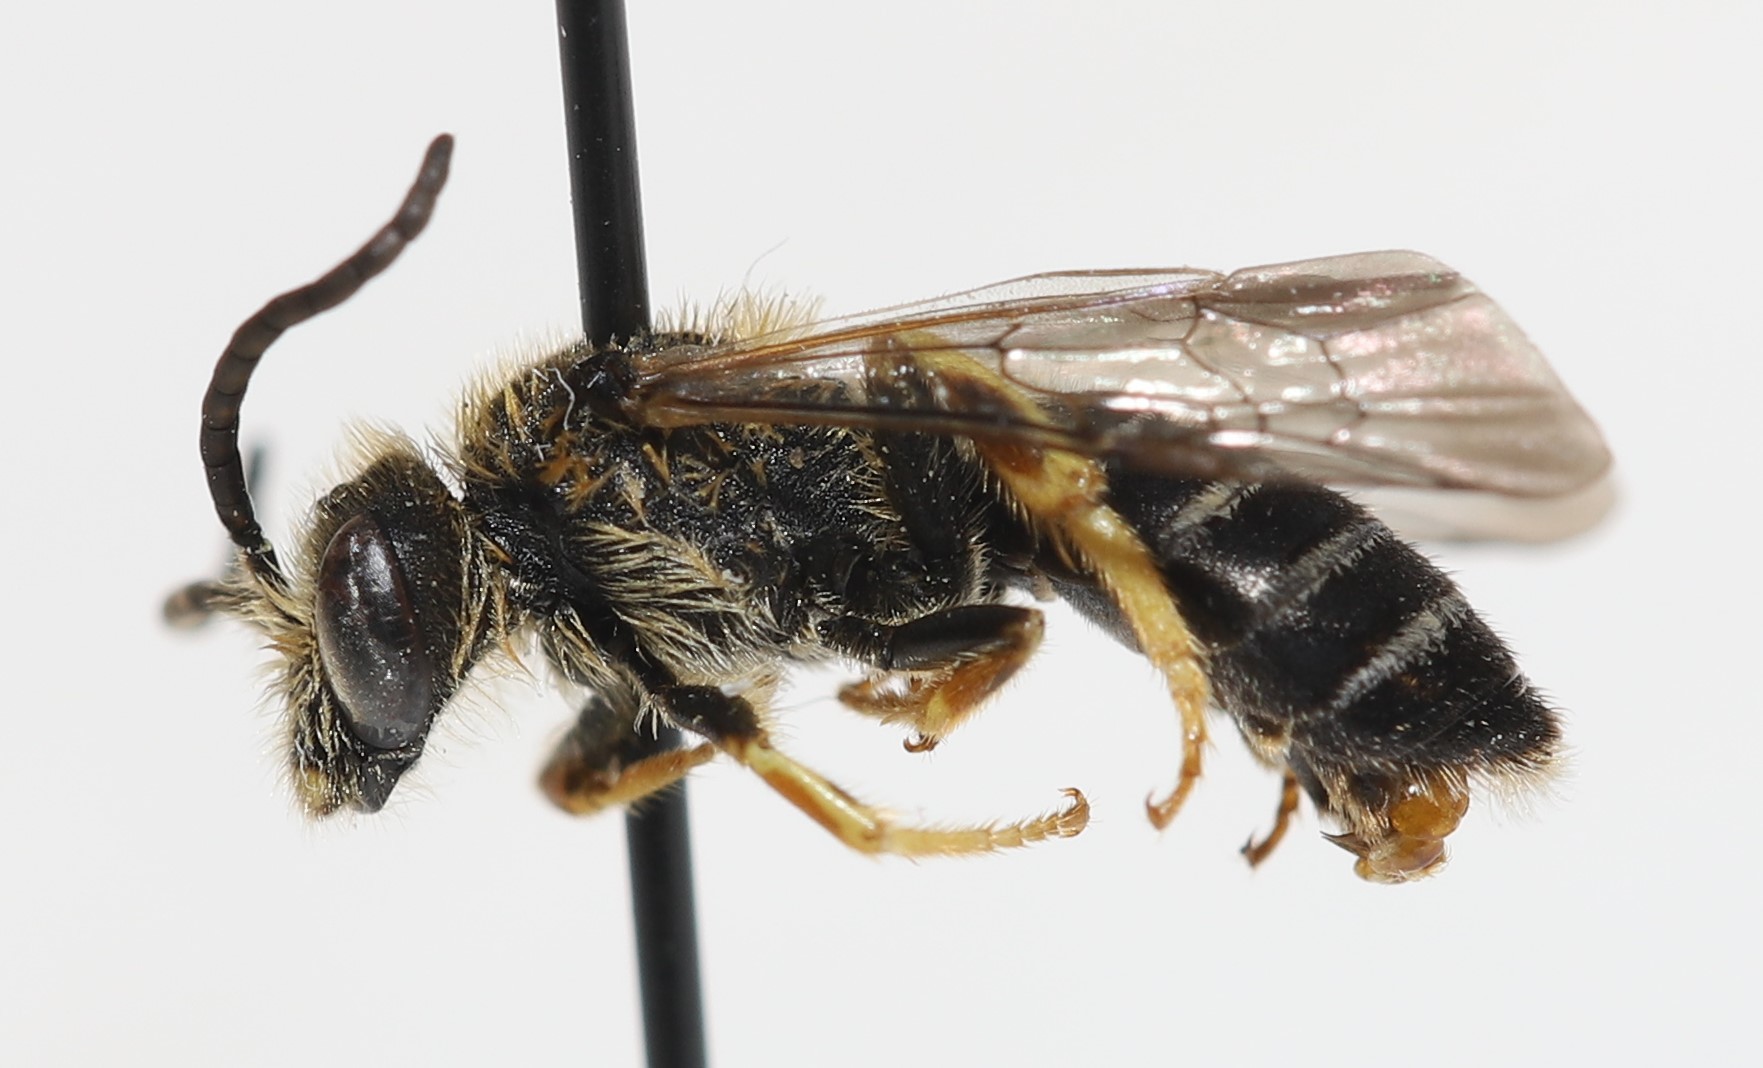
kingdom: Animalia
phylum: Arthropoda
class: Insecta
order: Hymenoptera
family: Halictidae
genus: Halictus
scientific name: Halictus rubicundus
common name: Orange-legged furrow bee
